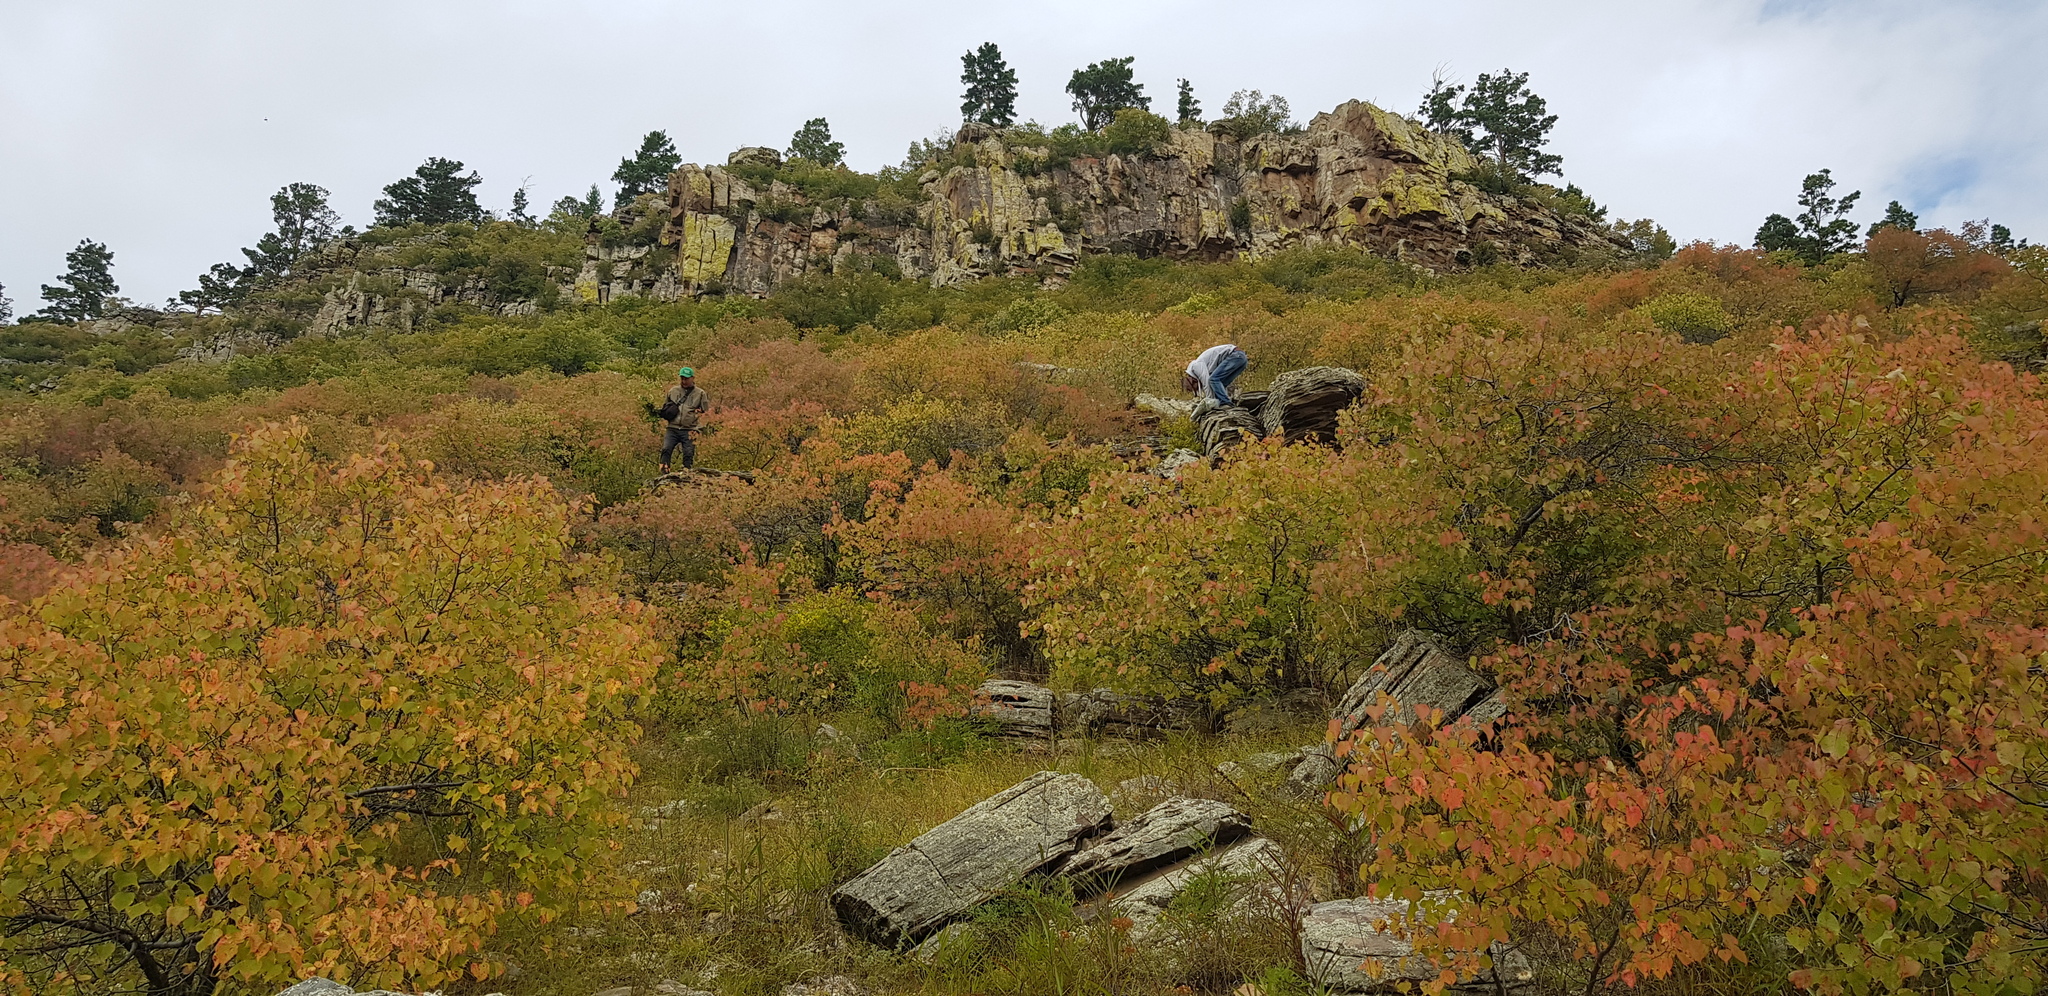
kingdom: Plantae
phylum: Tracheophyta
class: Magnoliopsida
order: Rosales
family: Rosaceae
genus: Prunus
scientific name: Prunus sibirica
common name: Siberian apricot
